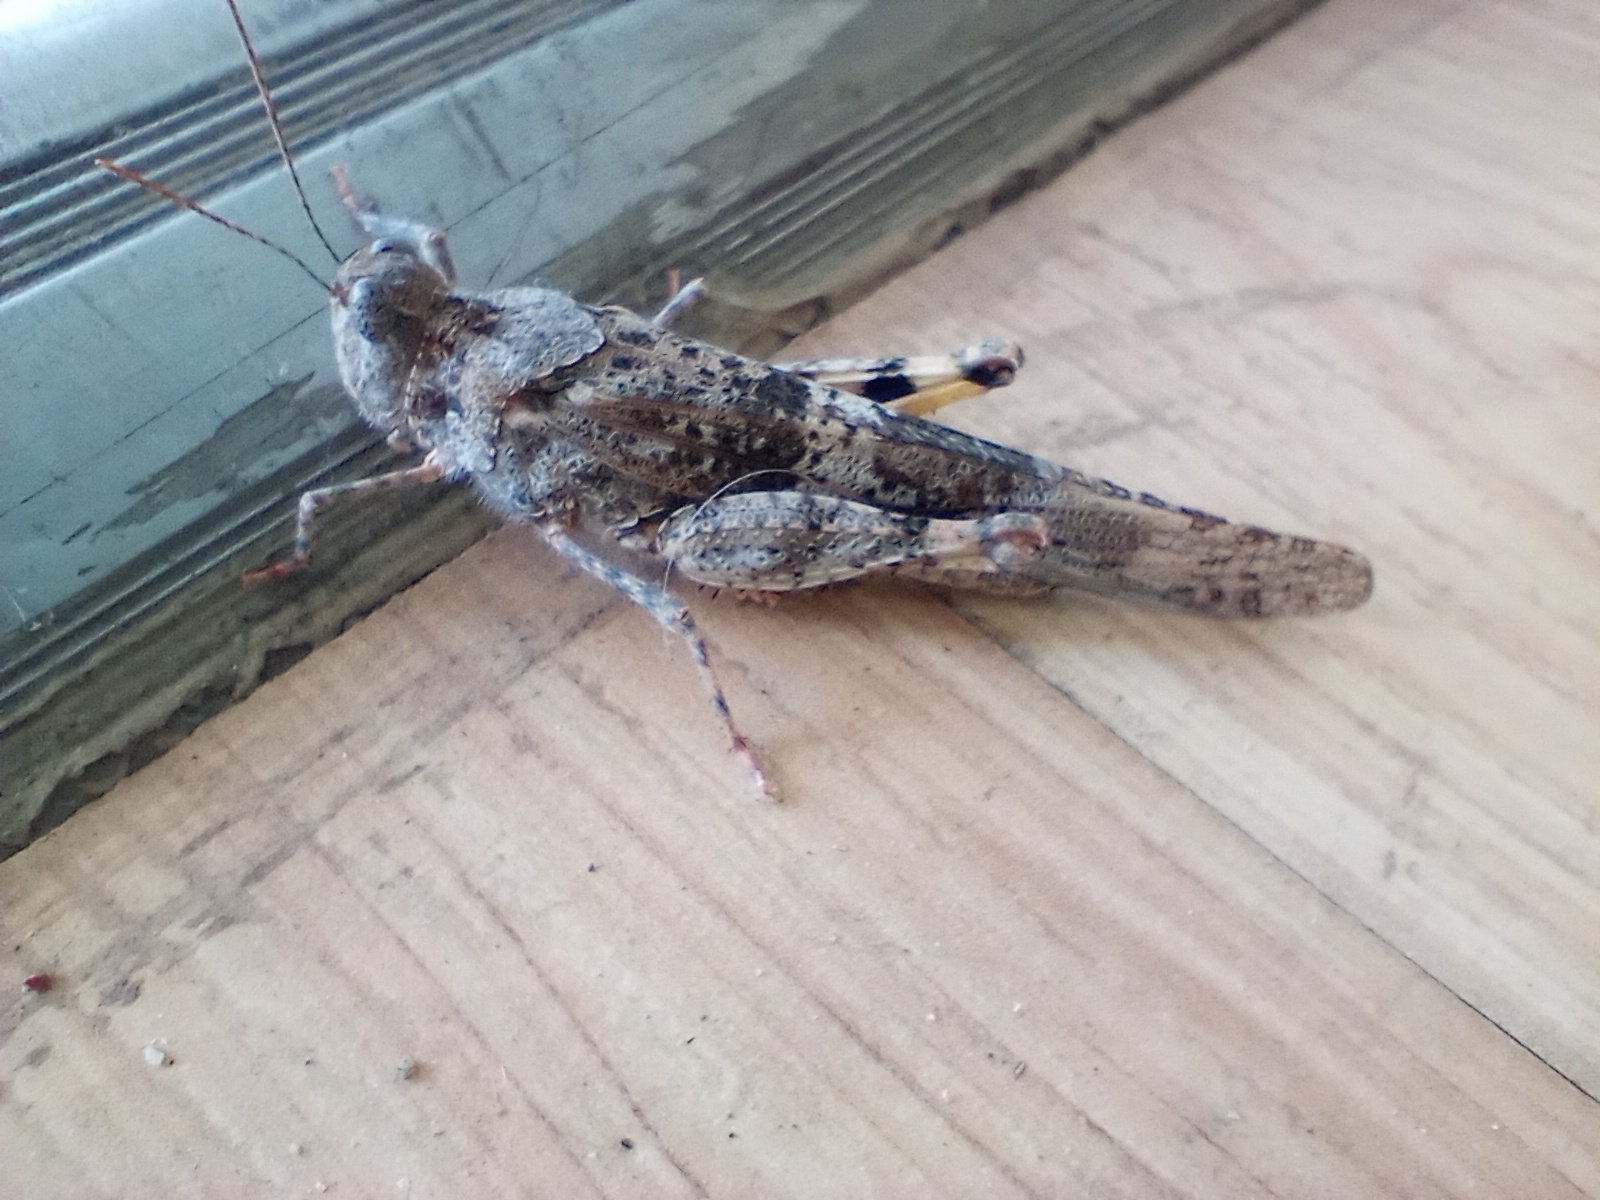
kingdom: Animalia
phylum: Arthropoda
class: Insecta
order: Orthoptera
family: Acrididae
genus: Trimerotropis
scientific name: Trimerotropis pallidipennis
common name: Pallid-winged grasshopper
